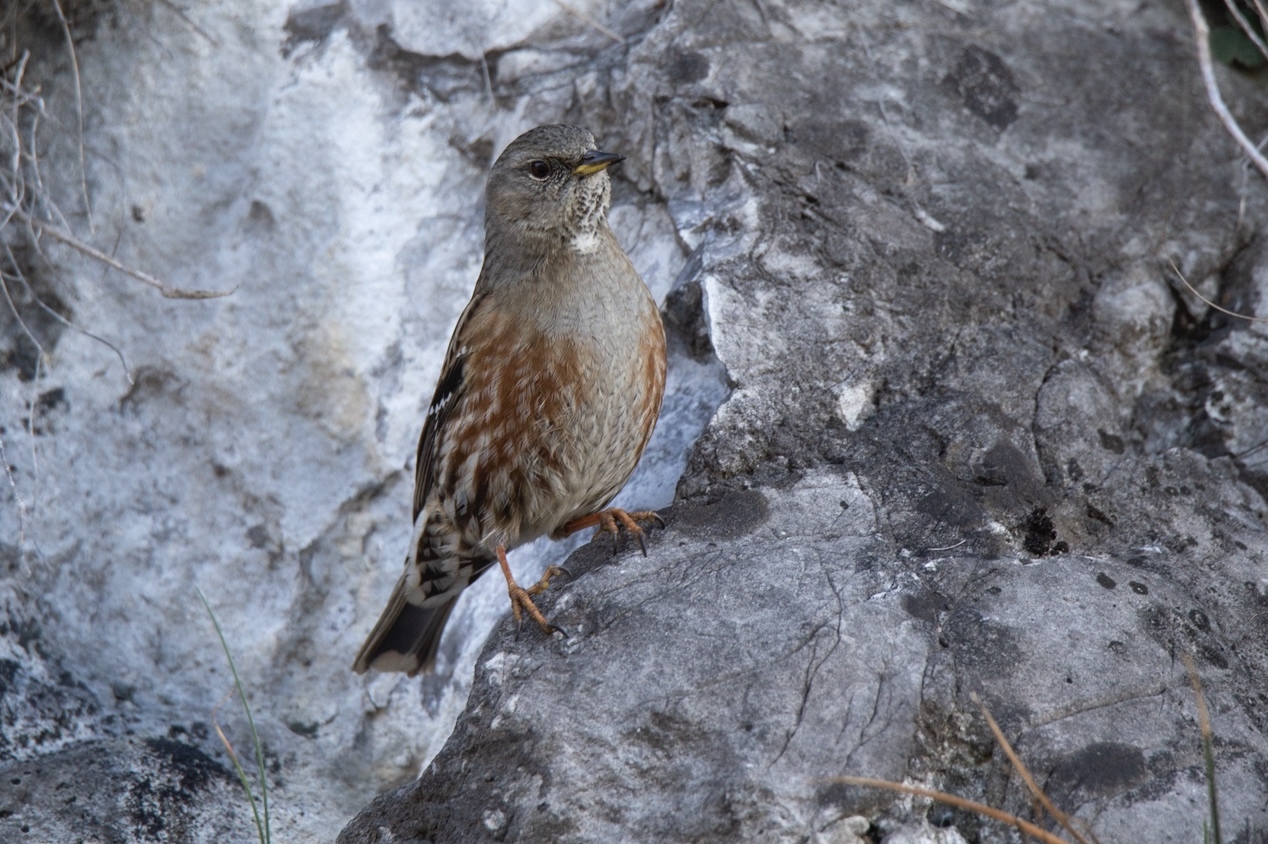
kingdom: Animalia
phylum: Chordata
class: Aves
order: Passeriformes
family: Prunellidae
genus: Prunella
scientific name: Prunella collaris
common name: Alpine accentor
